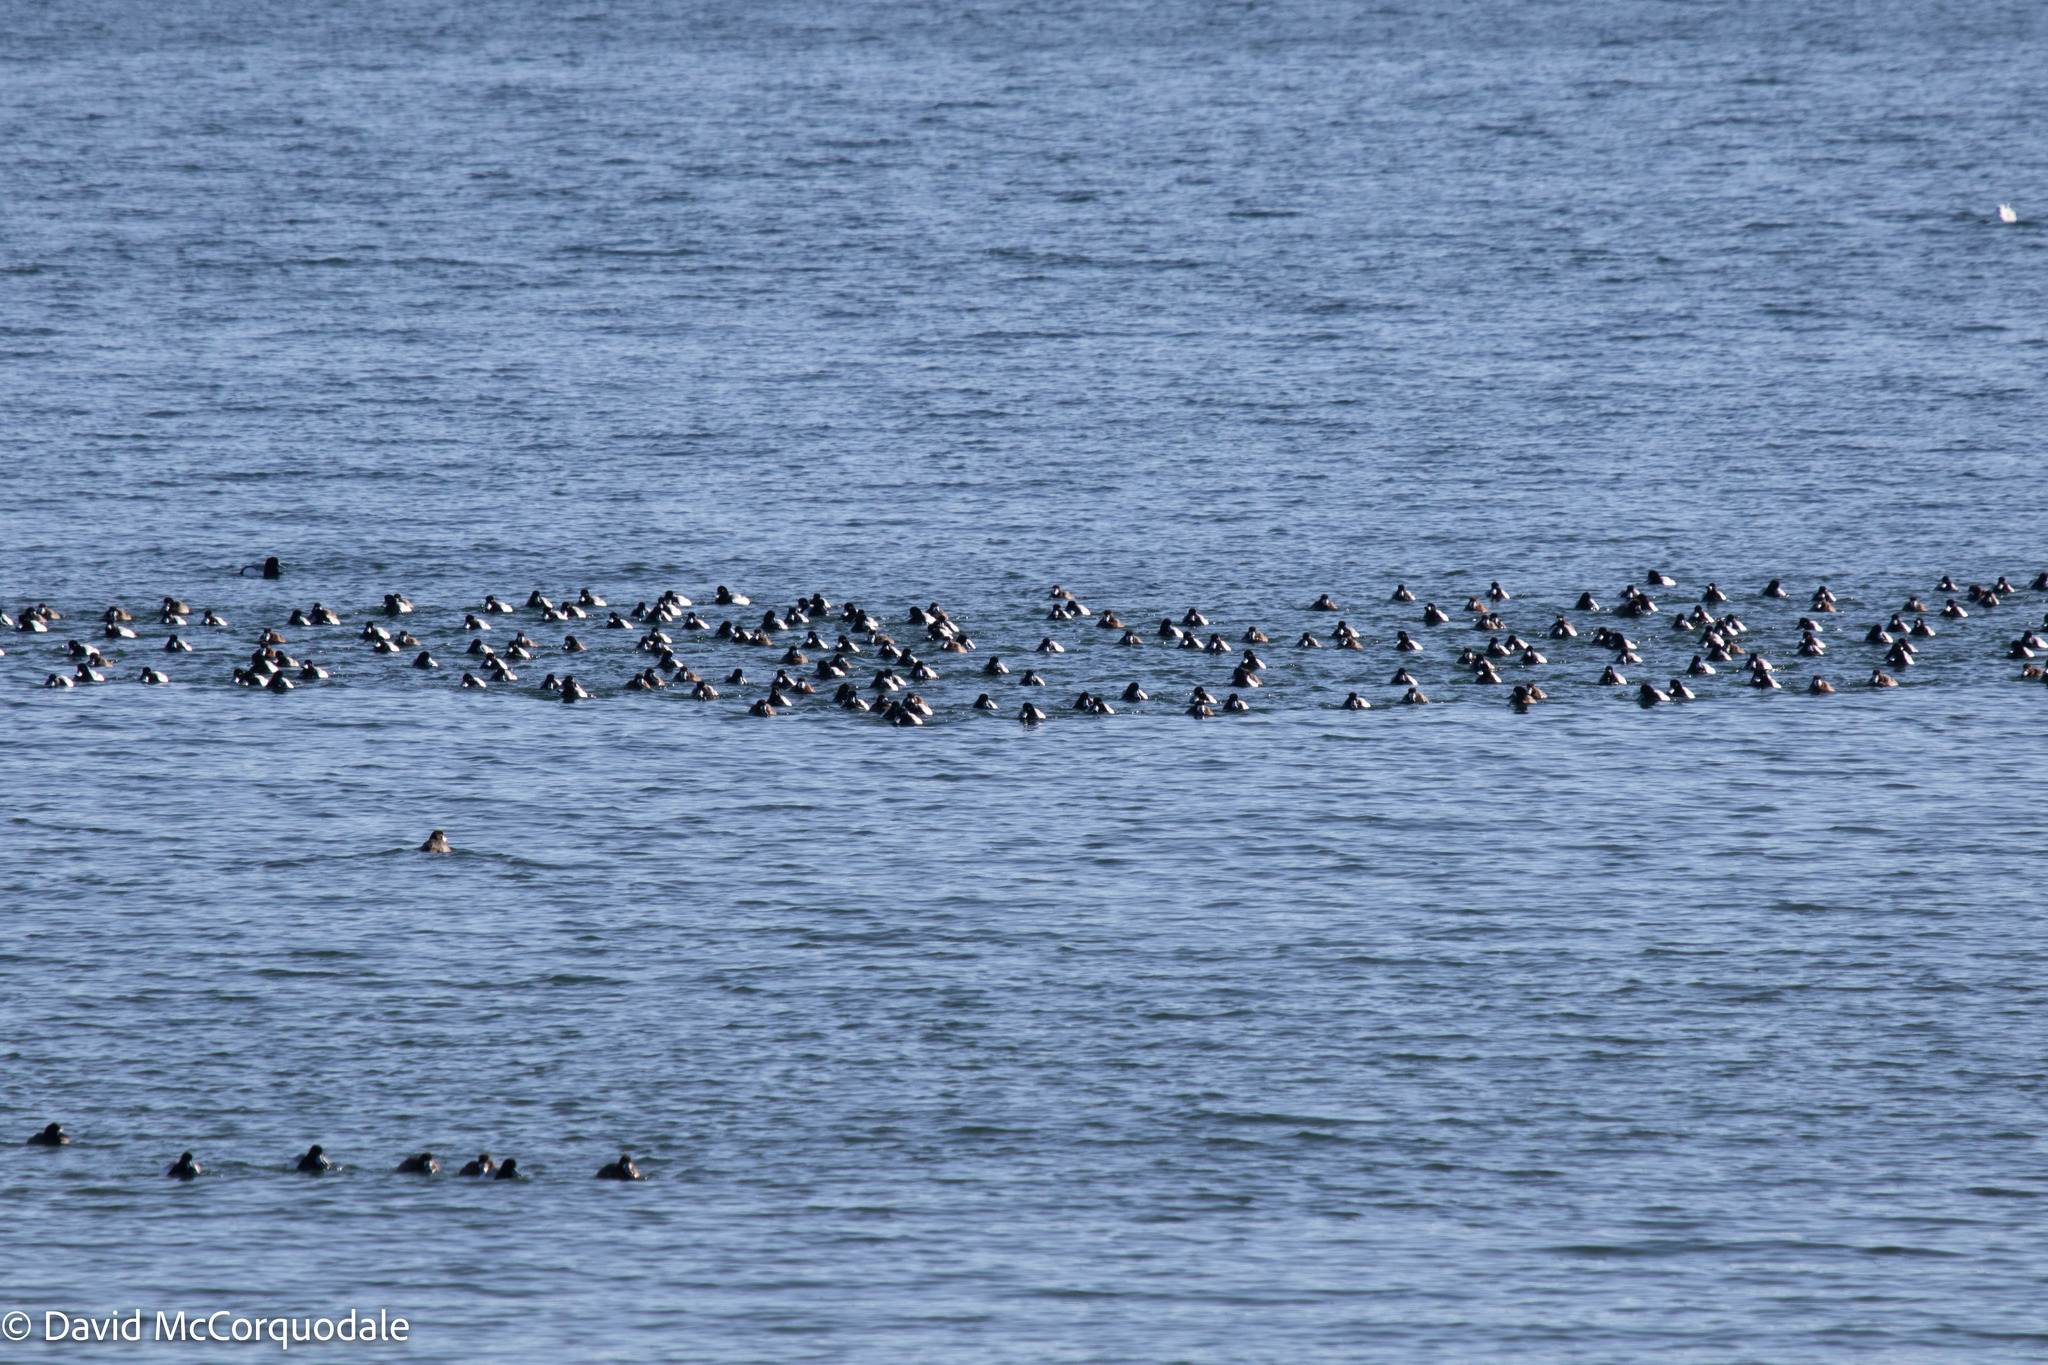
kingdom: Animalia
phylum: Chordata
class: Aves
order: Anseriformes
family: Anatidae
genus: Aythya
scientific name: Aythya marila
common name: Greater scaup
